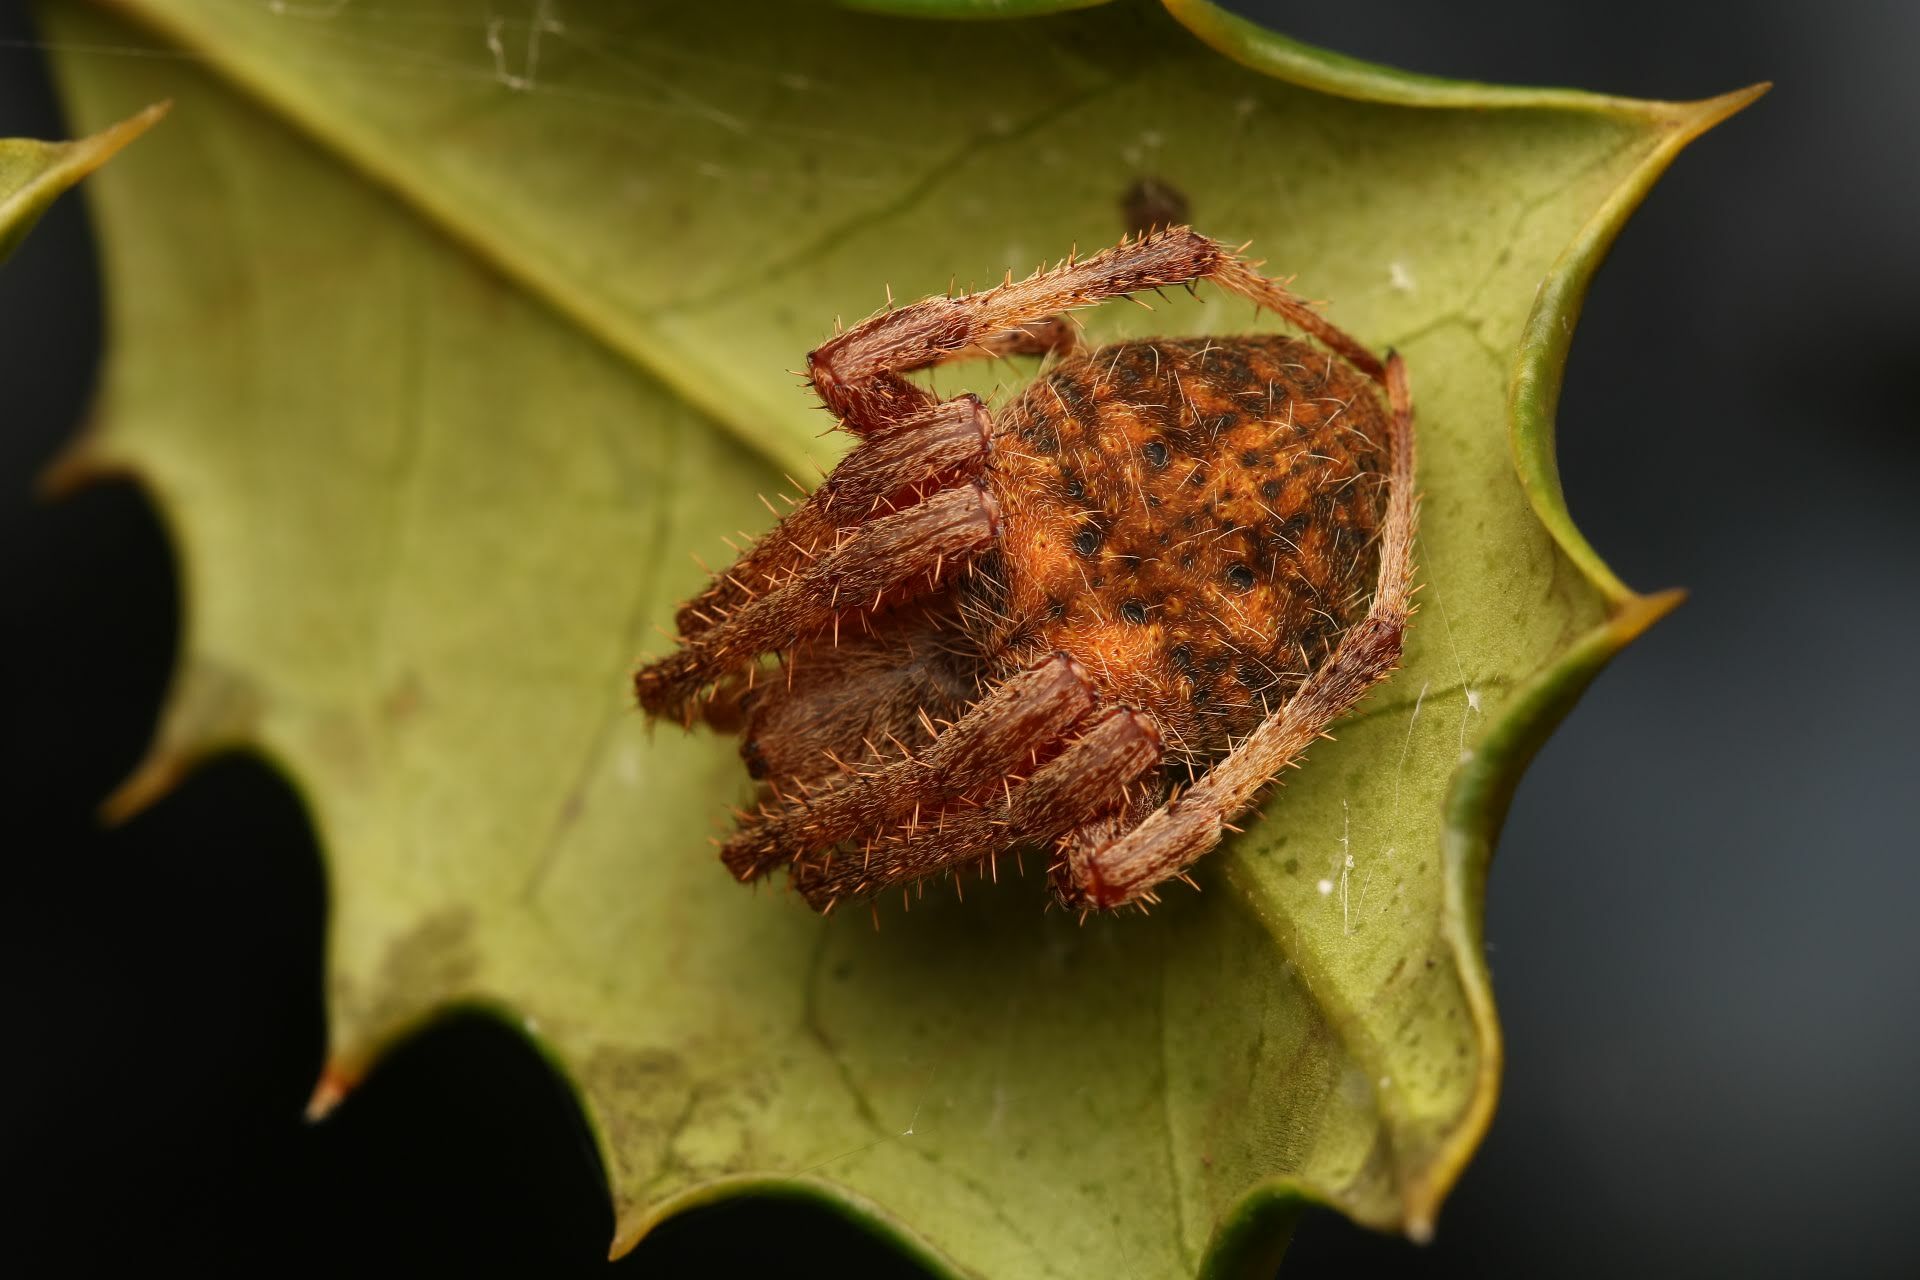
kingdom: Animalia
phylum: Arthropoda
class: Arachnida
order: Araneae
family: Araneidae
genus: Neoscona
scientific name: Neoscona crucifera
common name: Spotted orbweaver
